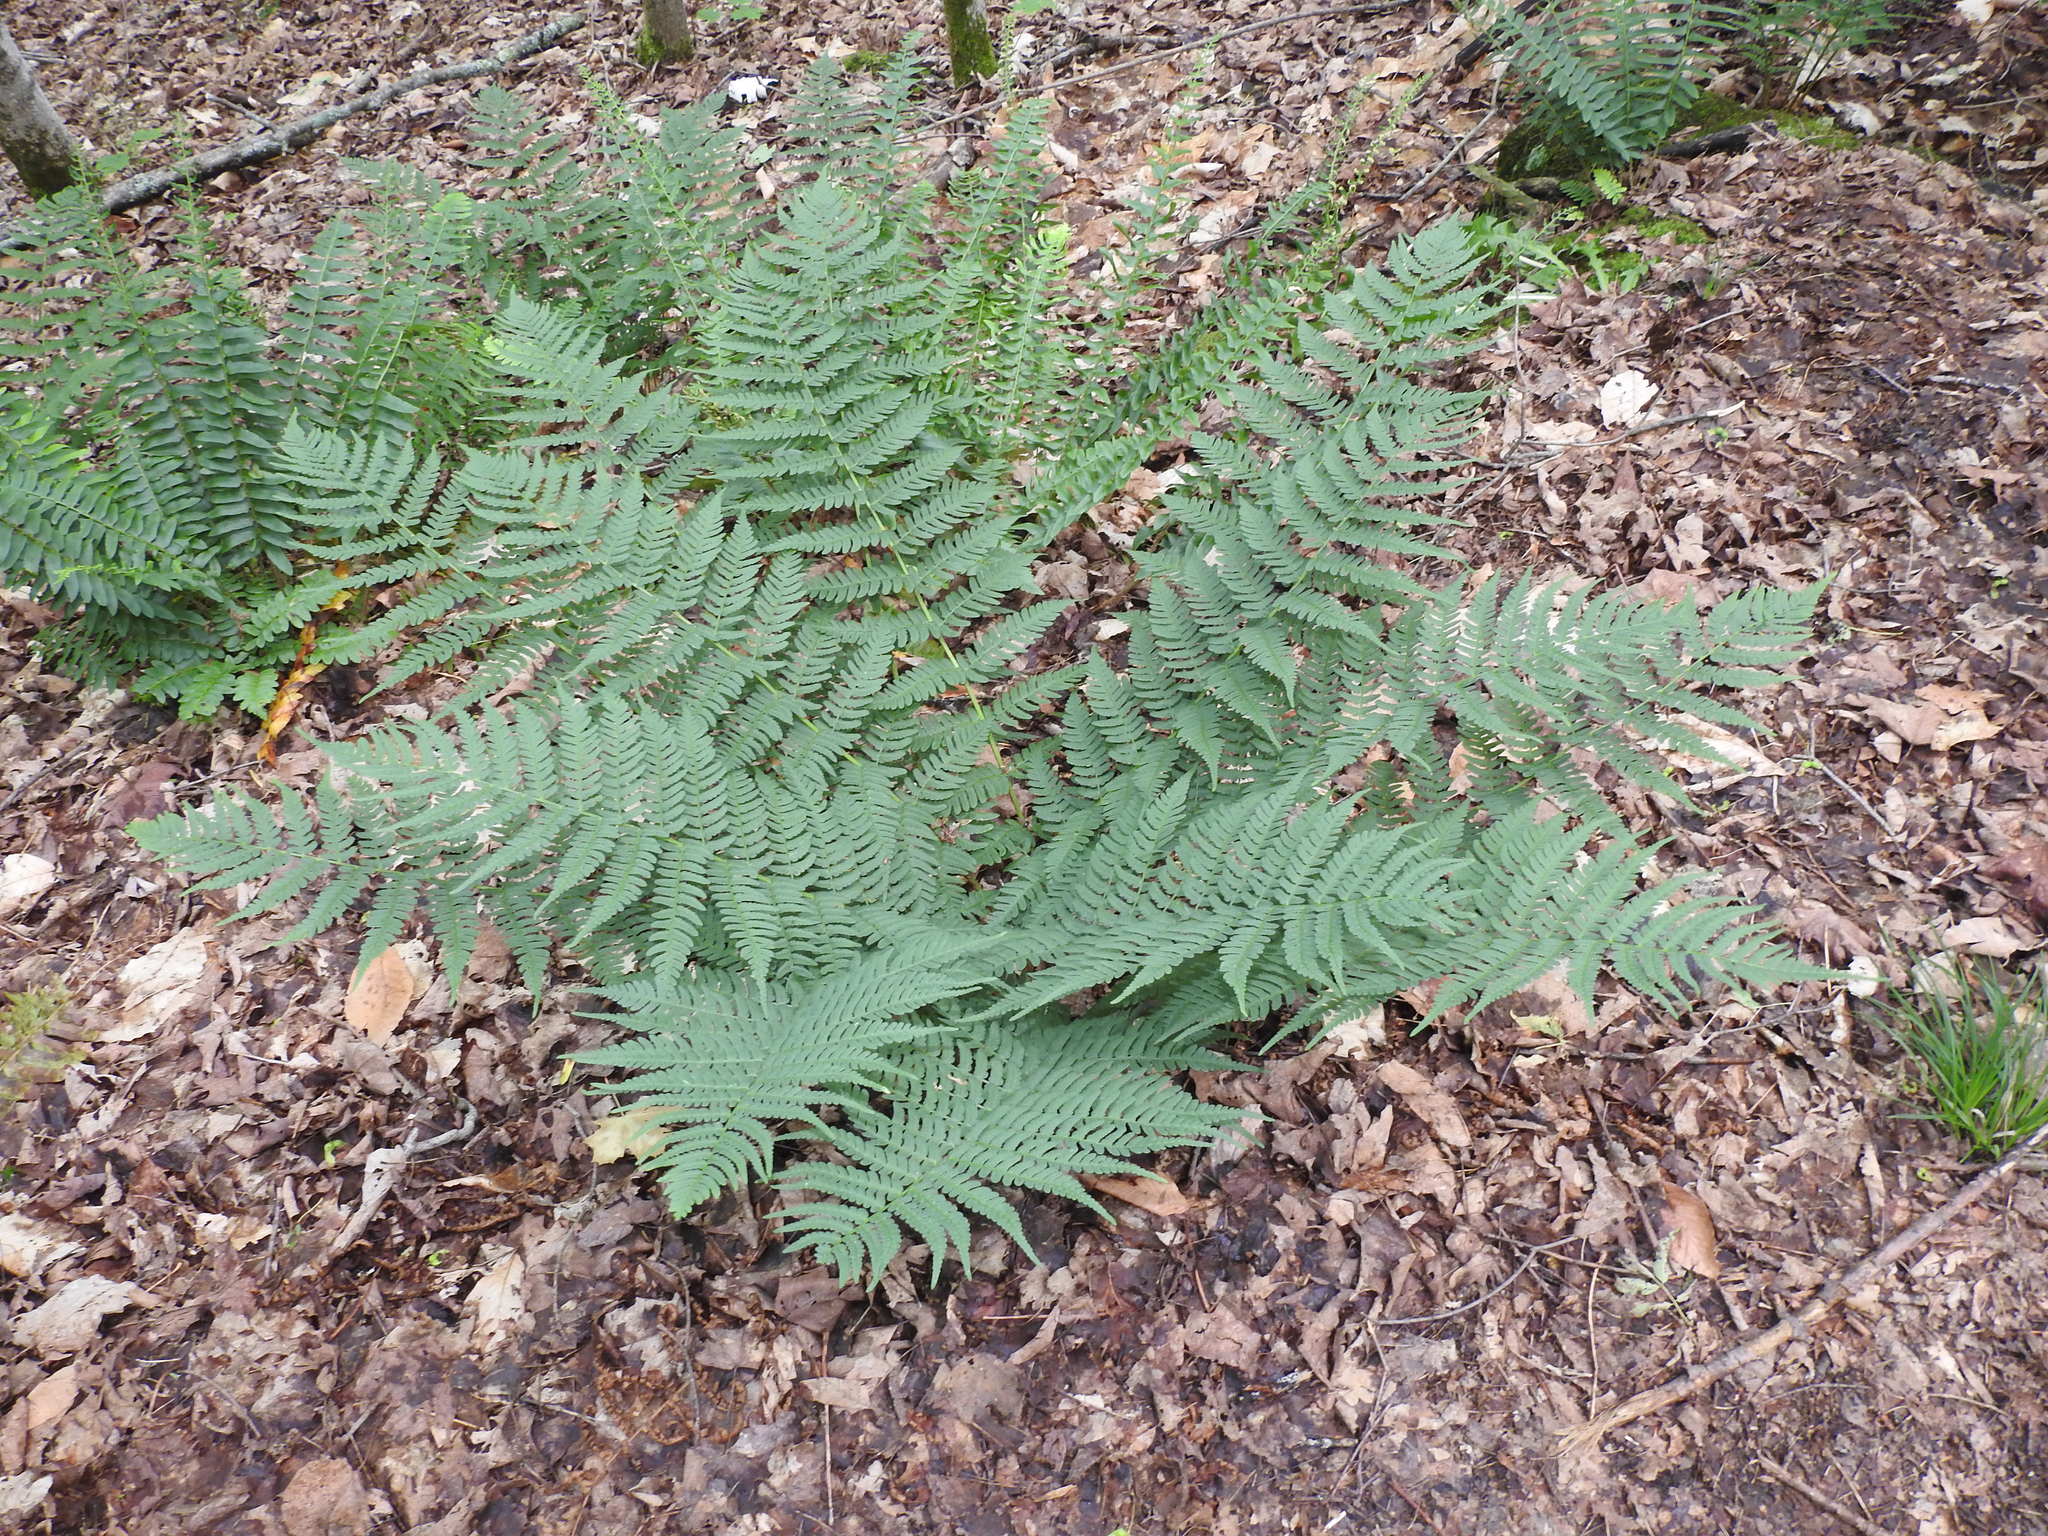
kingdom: Plantae
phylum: Tracheophyta
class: Polypodiopsida
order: Polypodiales
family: Dryopteridaceae
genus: Dryopteris
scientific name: Dryopteris marginalis
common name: Marginal wood fern
